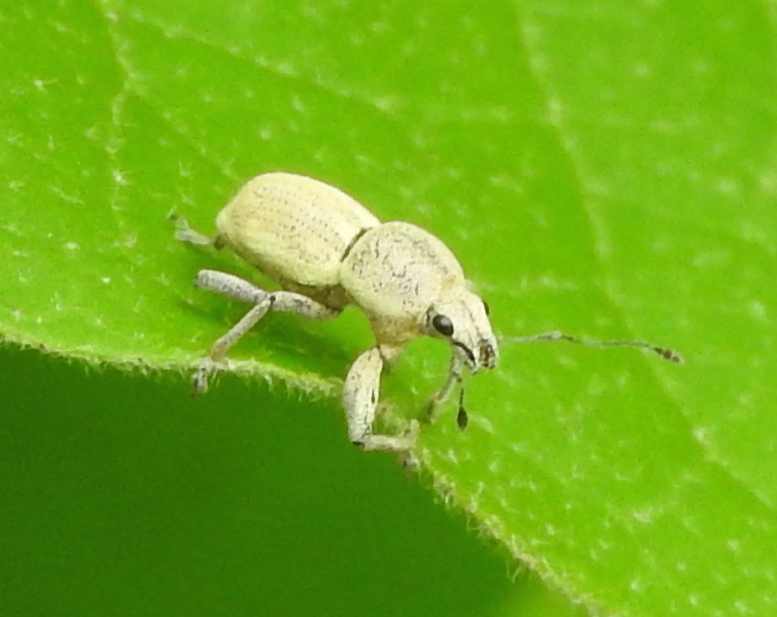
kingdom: Animalia
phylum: Arthropoda
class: Insecta
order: Coleoptera
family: Curculionidae
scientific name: Curculionidae
